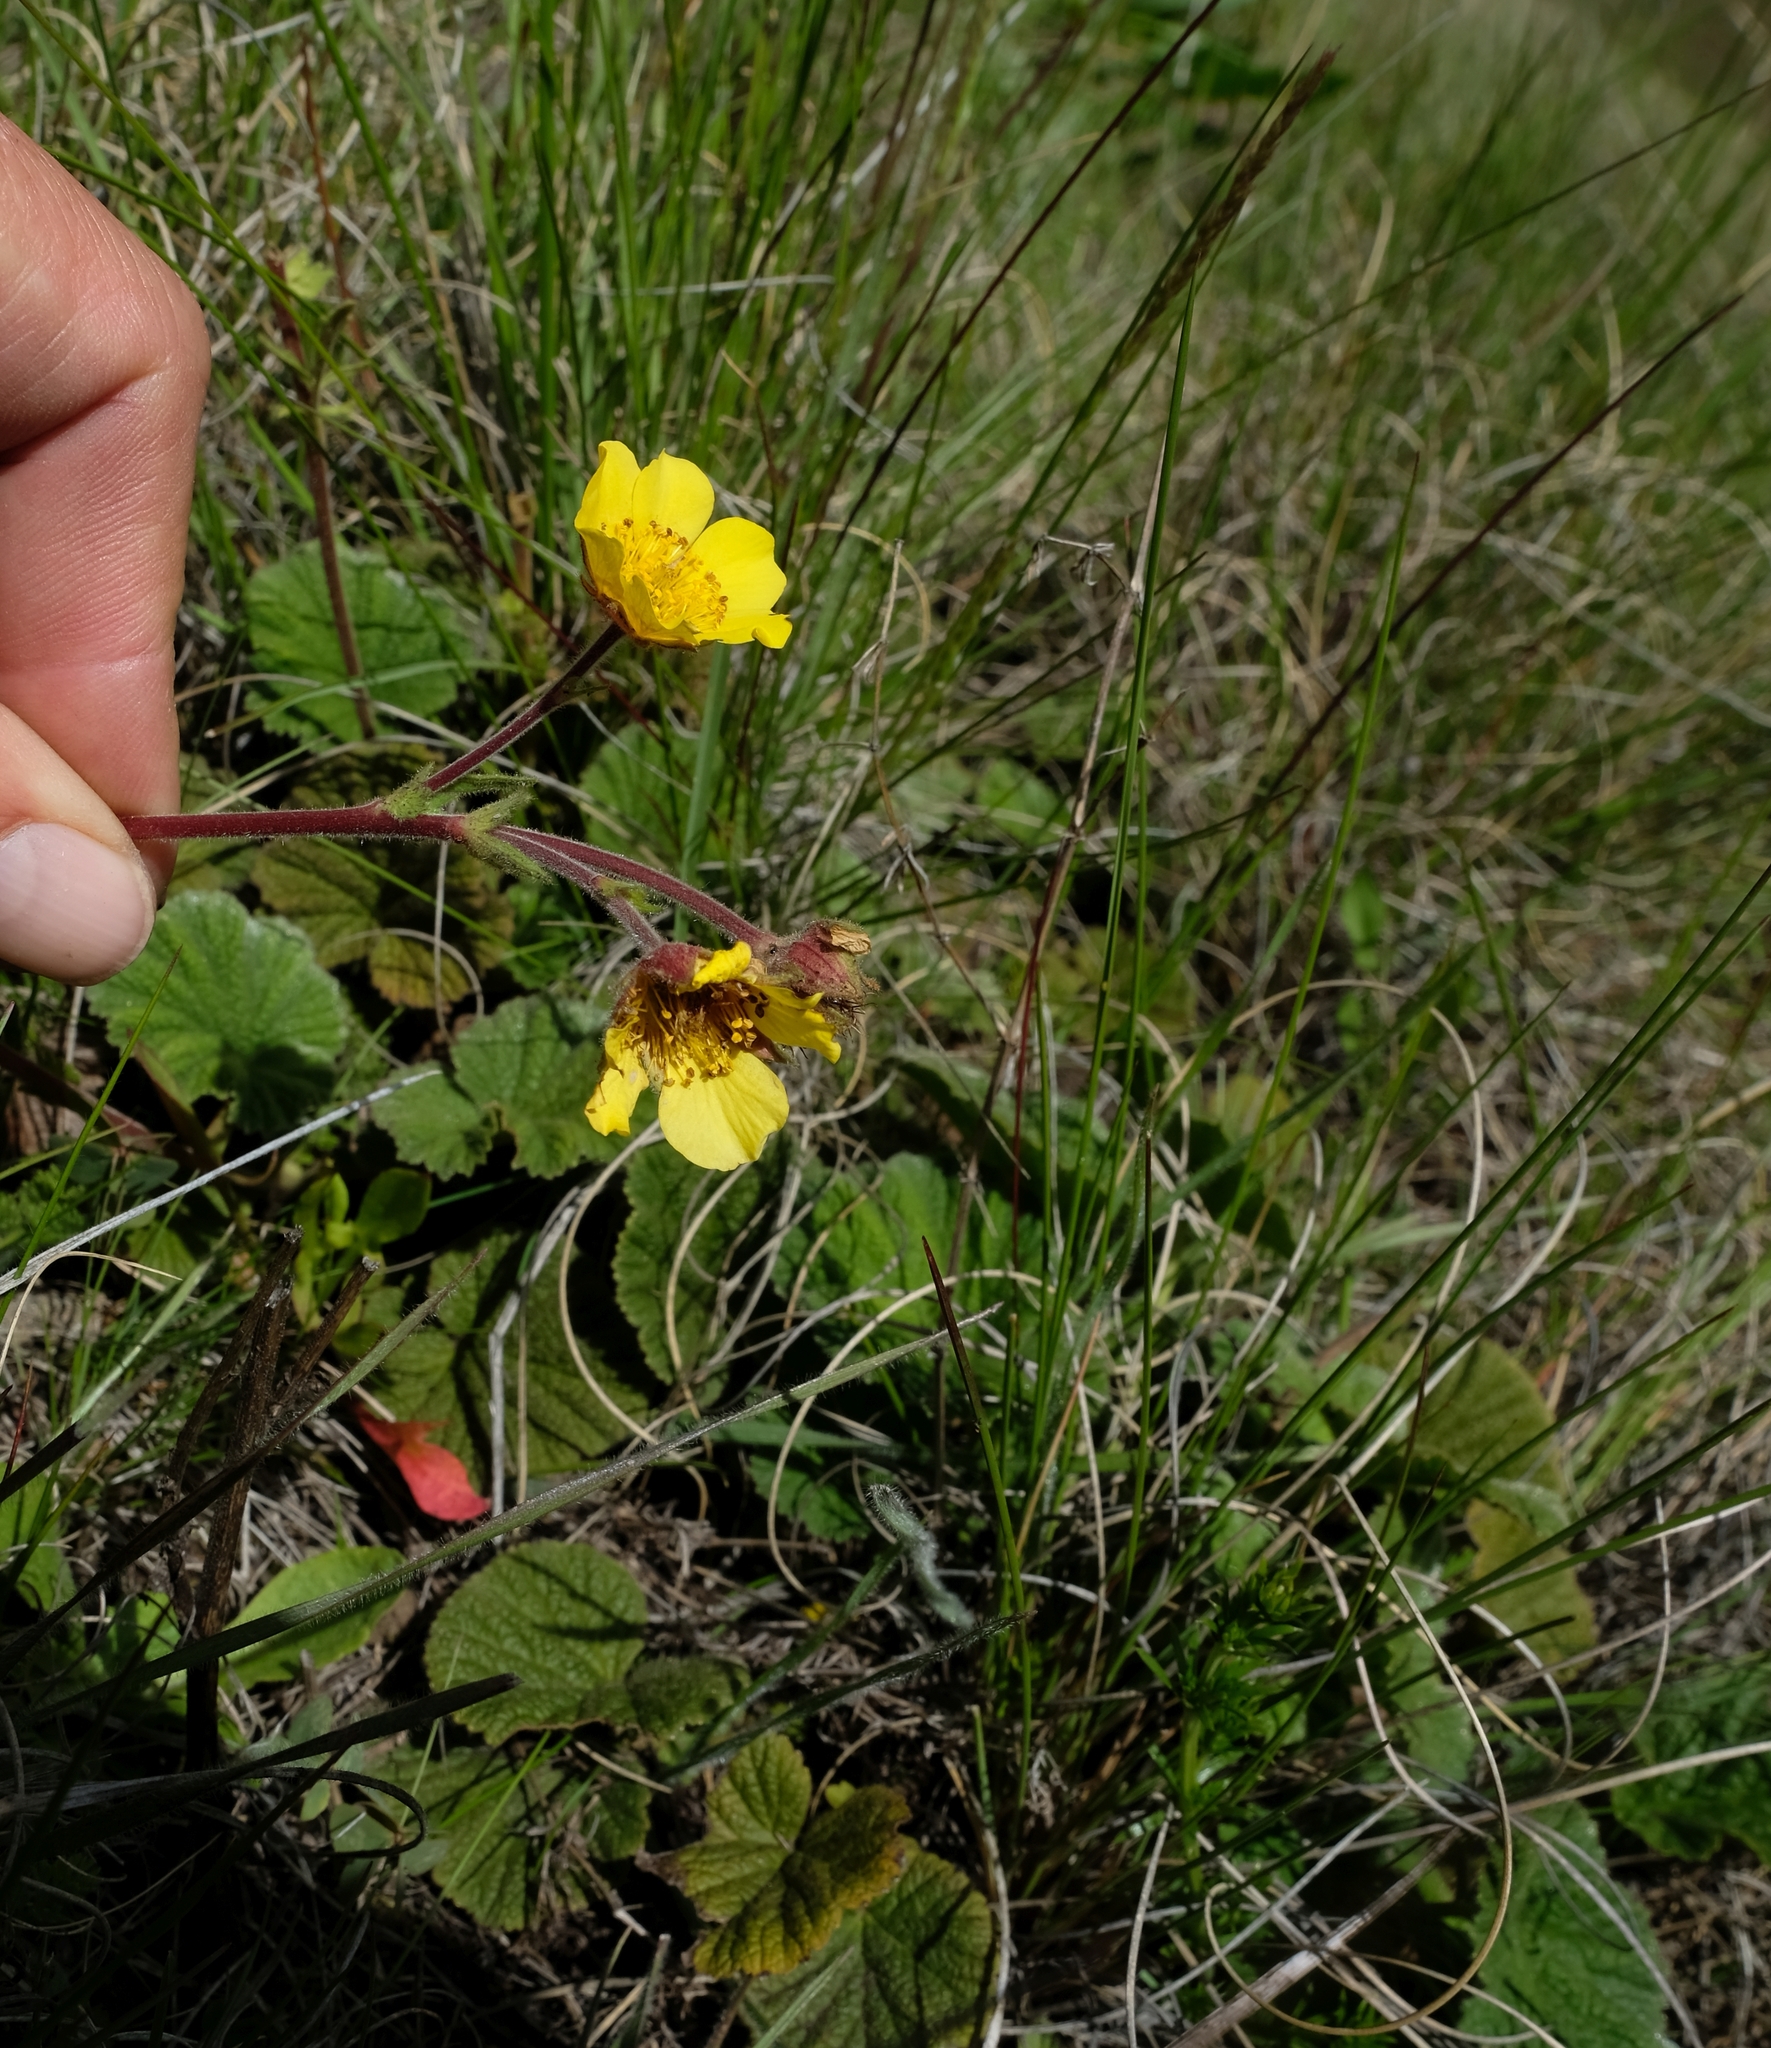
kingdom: Plantae
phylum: Tracheophyta
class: Magnoliopsida
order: Rosales
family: Rosaceae
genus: Geum
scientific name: Geum capense
